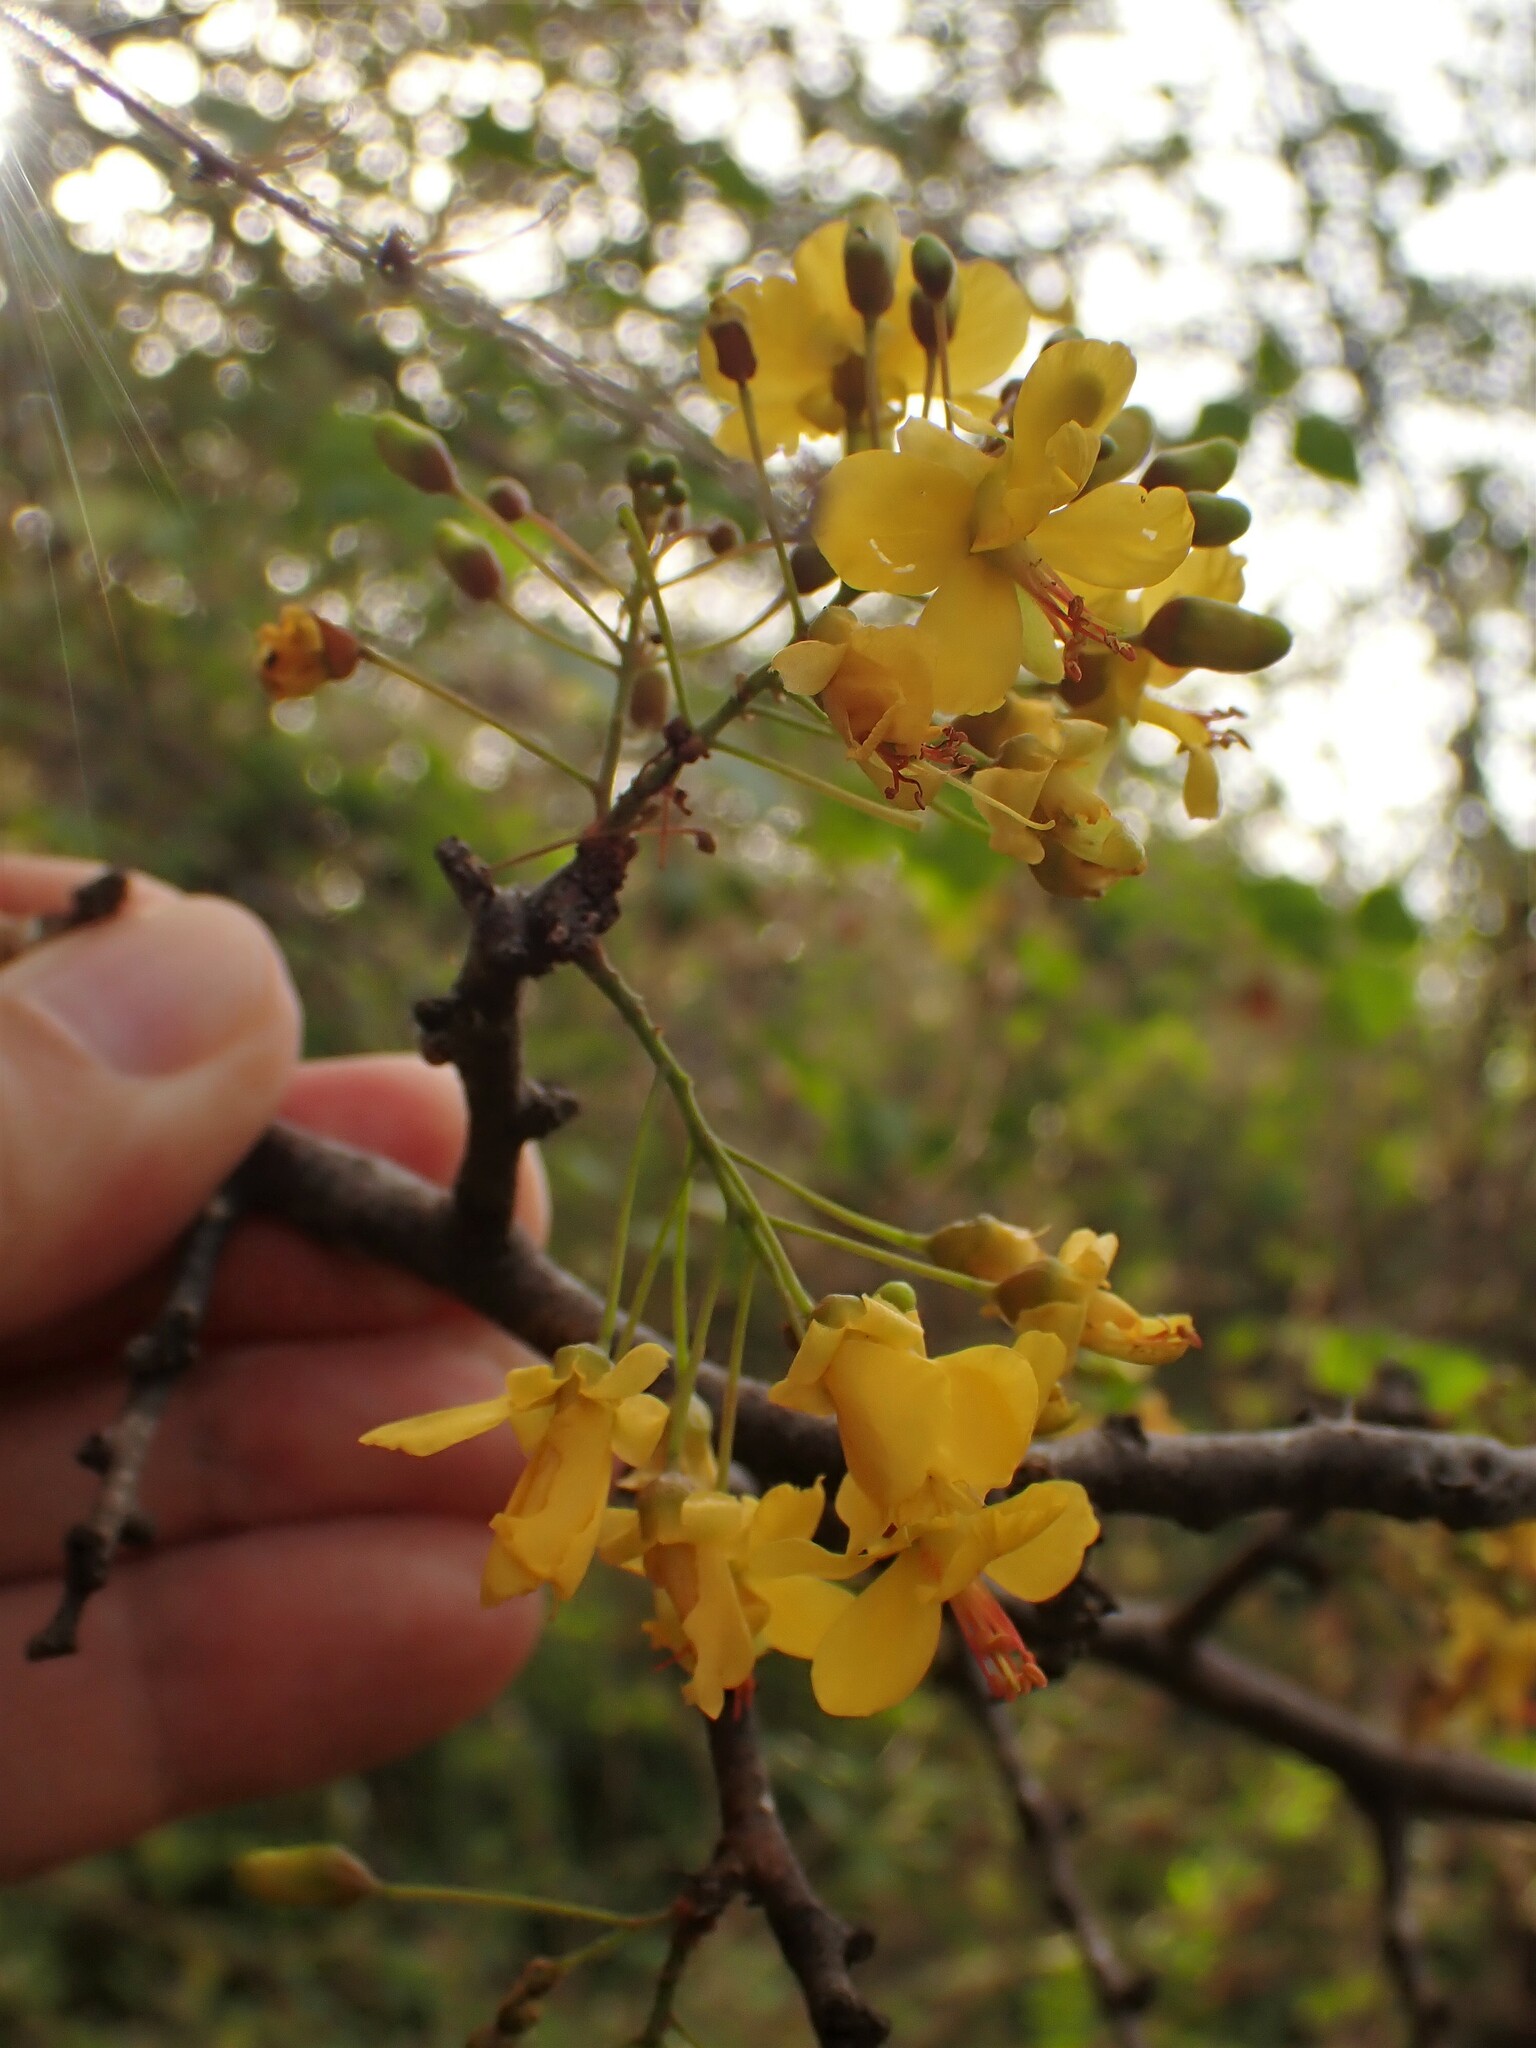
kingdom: Plantae
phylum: Tracheophyta
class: Magnoliopsida
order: Fabales
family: Fabaceae
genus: Haematoxylum
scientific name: Haematoxylum brasiletto
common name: Peachwood
